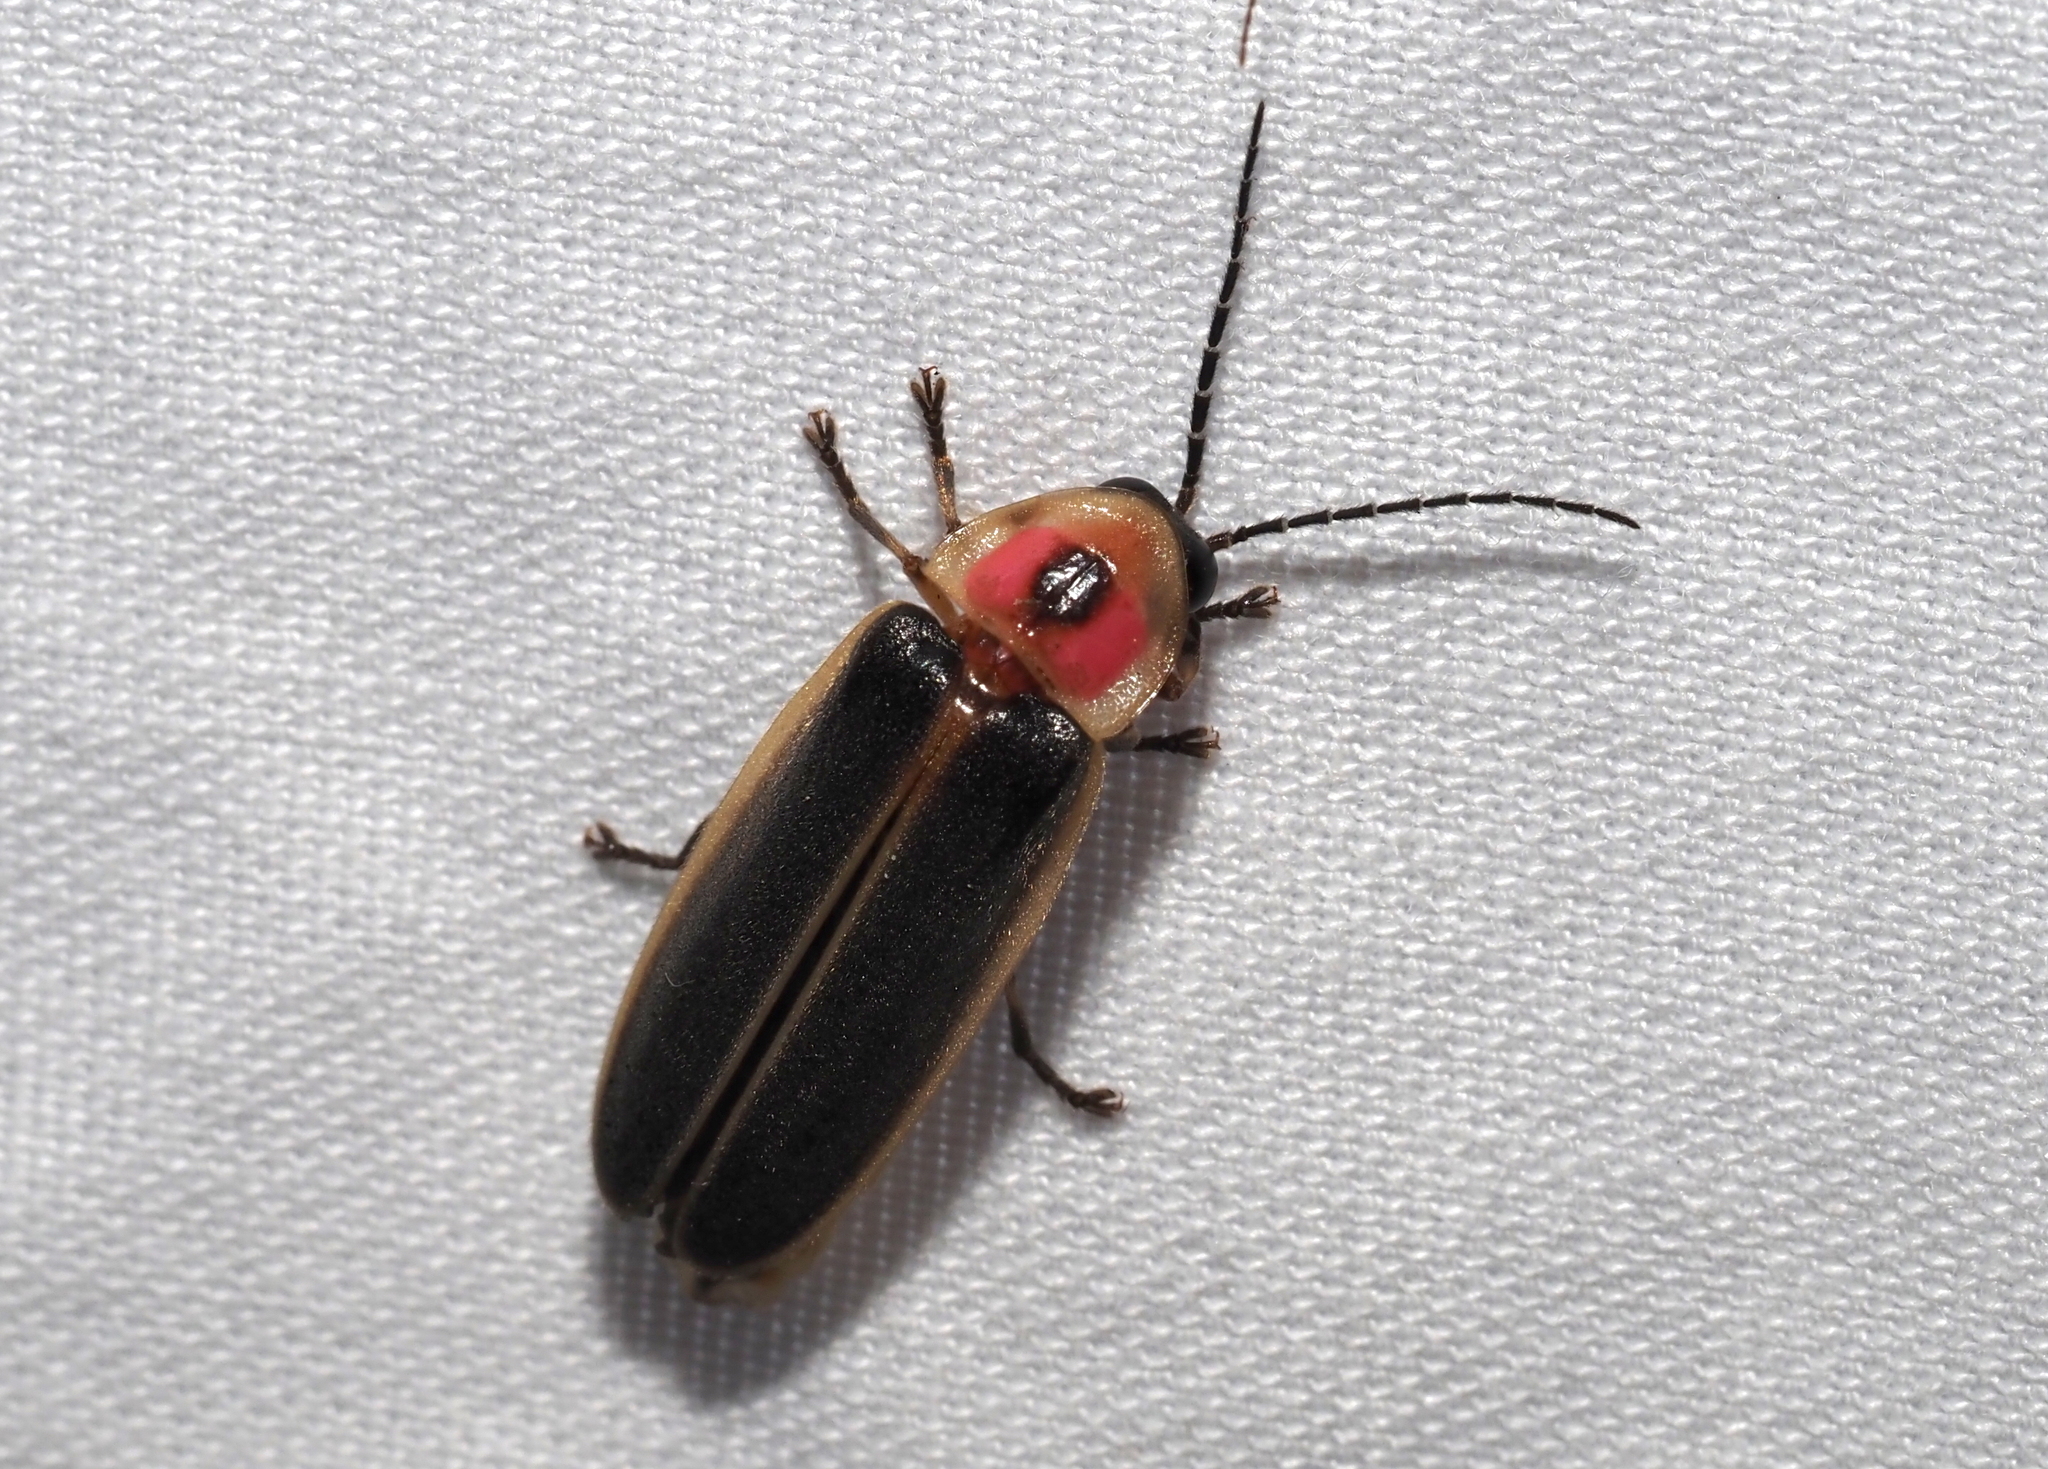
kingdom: Animalia
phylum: Arthropoda
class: Insecta
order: Coleoptera
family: Lampyridae
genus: Photinus
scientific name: Photinus pyralis
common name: Big dipper firefly
